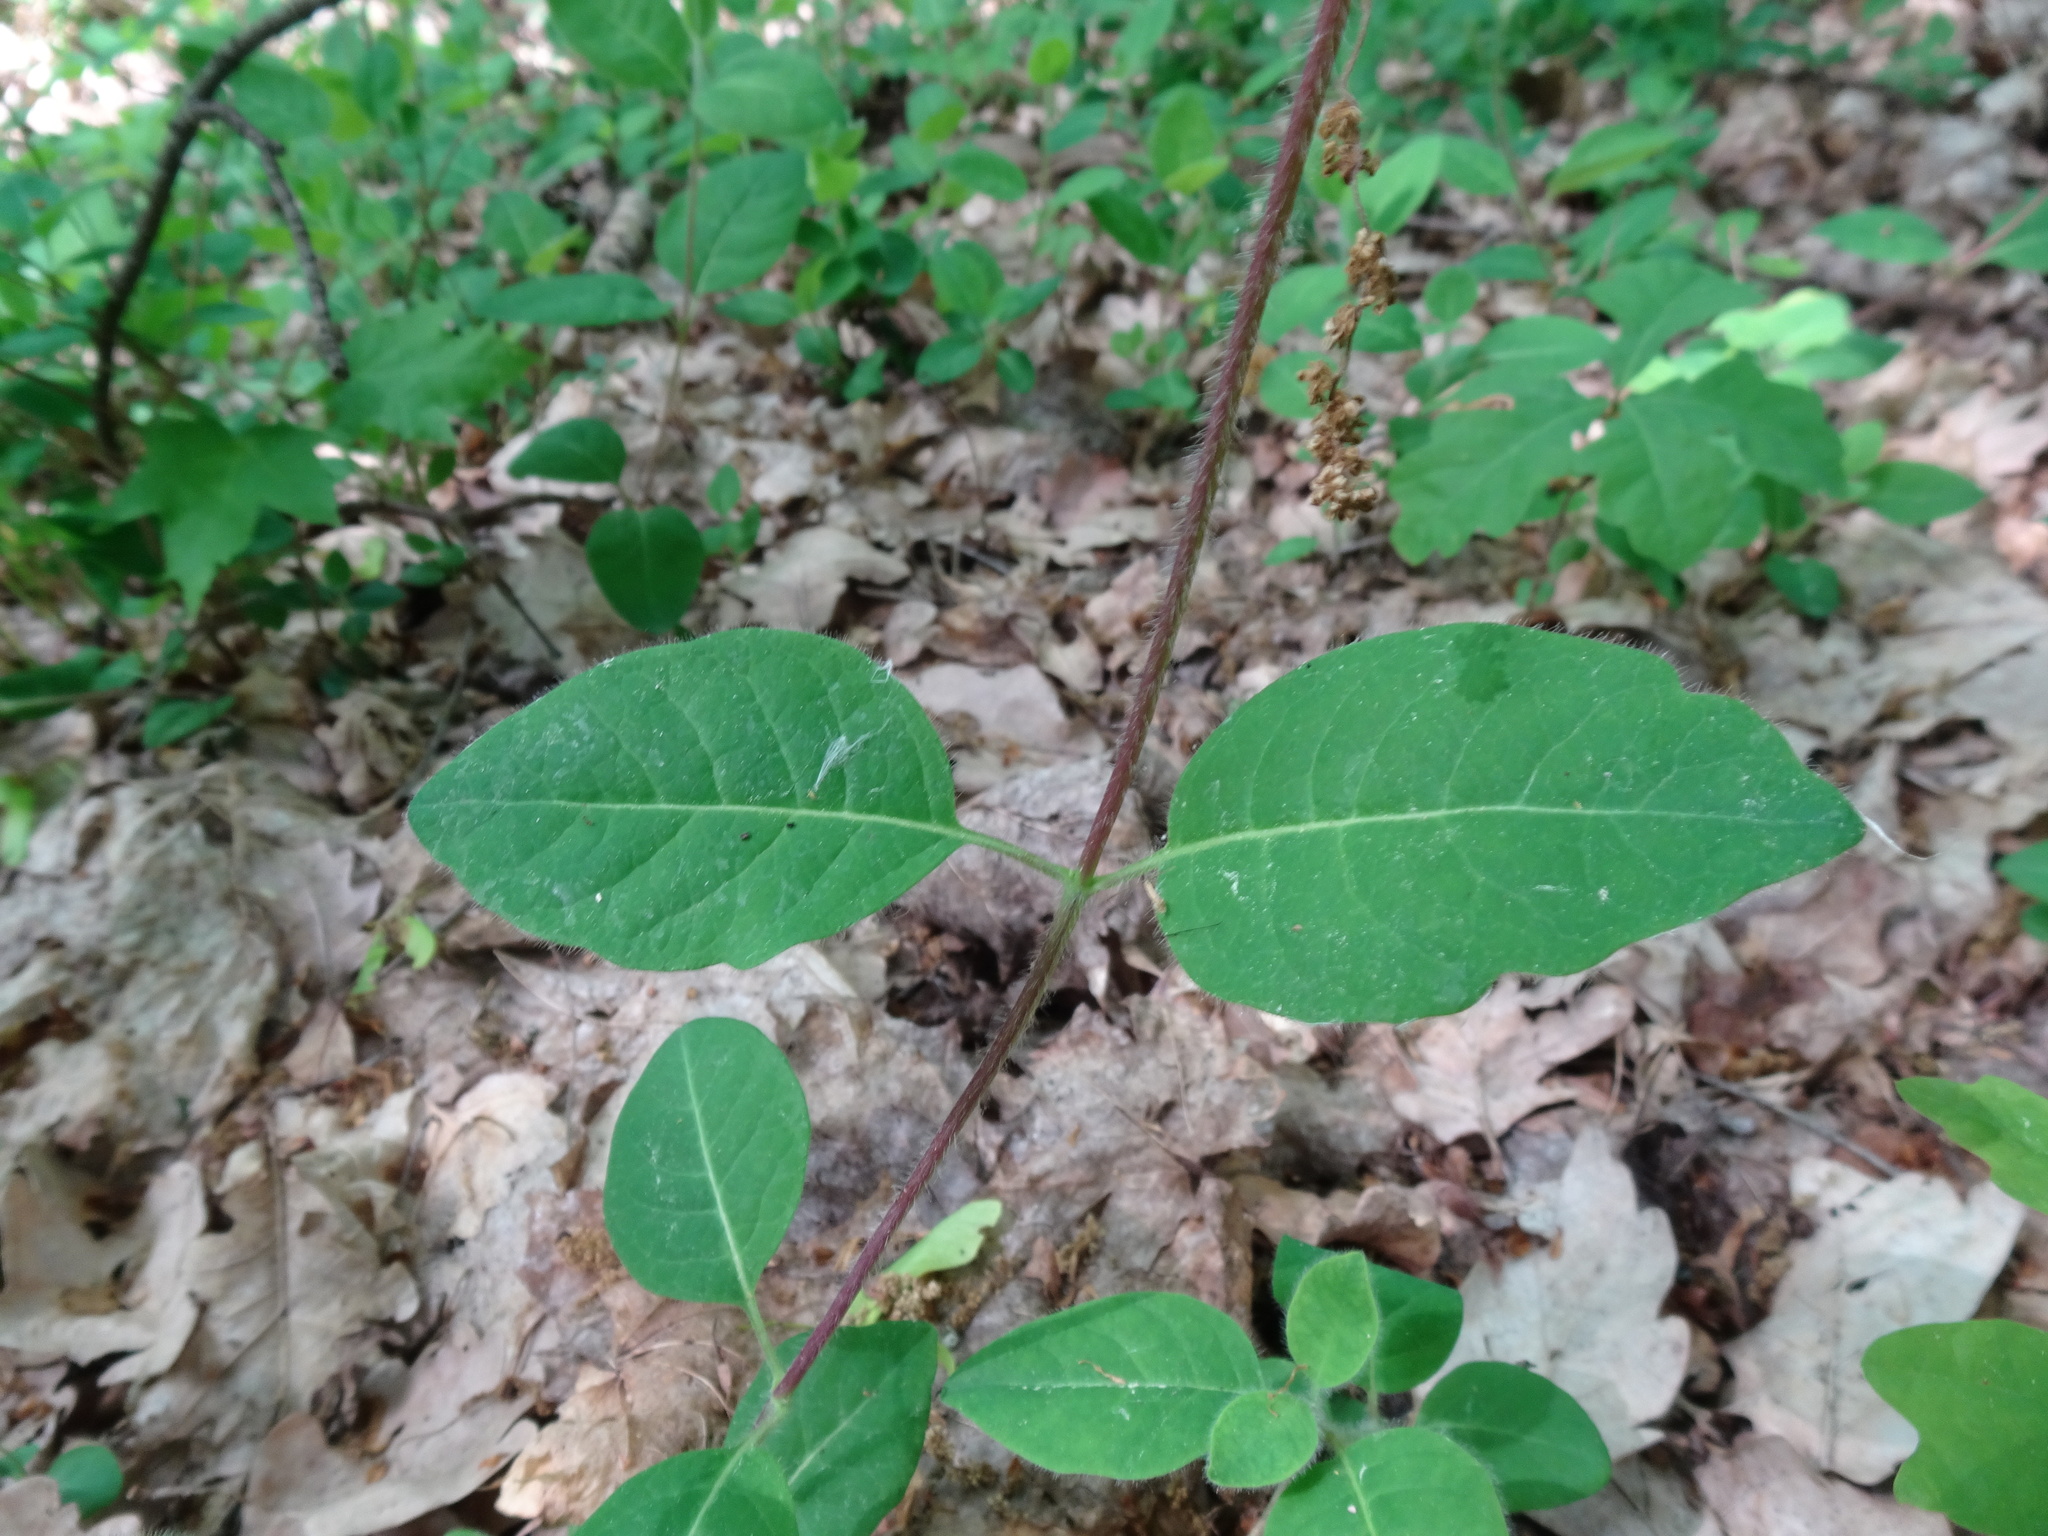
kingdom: Plantae
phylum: Tracheophyta
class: Magnoliopsida
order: Dipsacales
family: Caprifoliaceae
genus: Lonicera
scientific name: Lonicera periclymenum
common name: European honeysuckle
